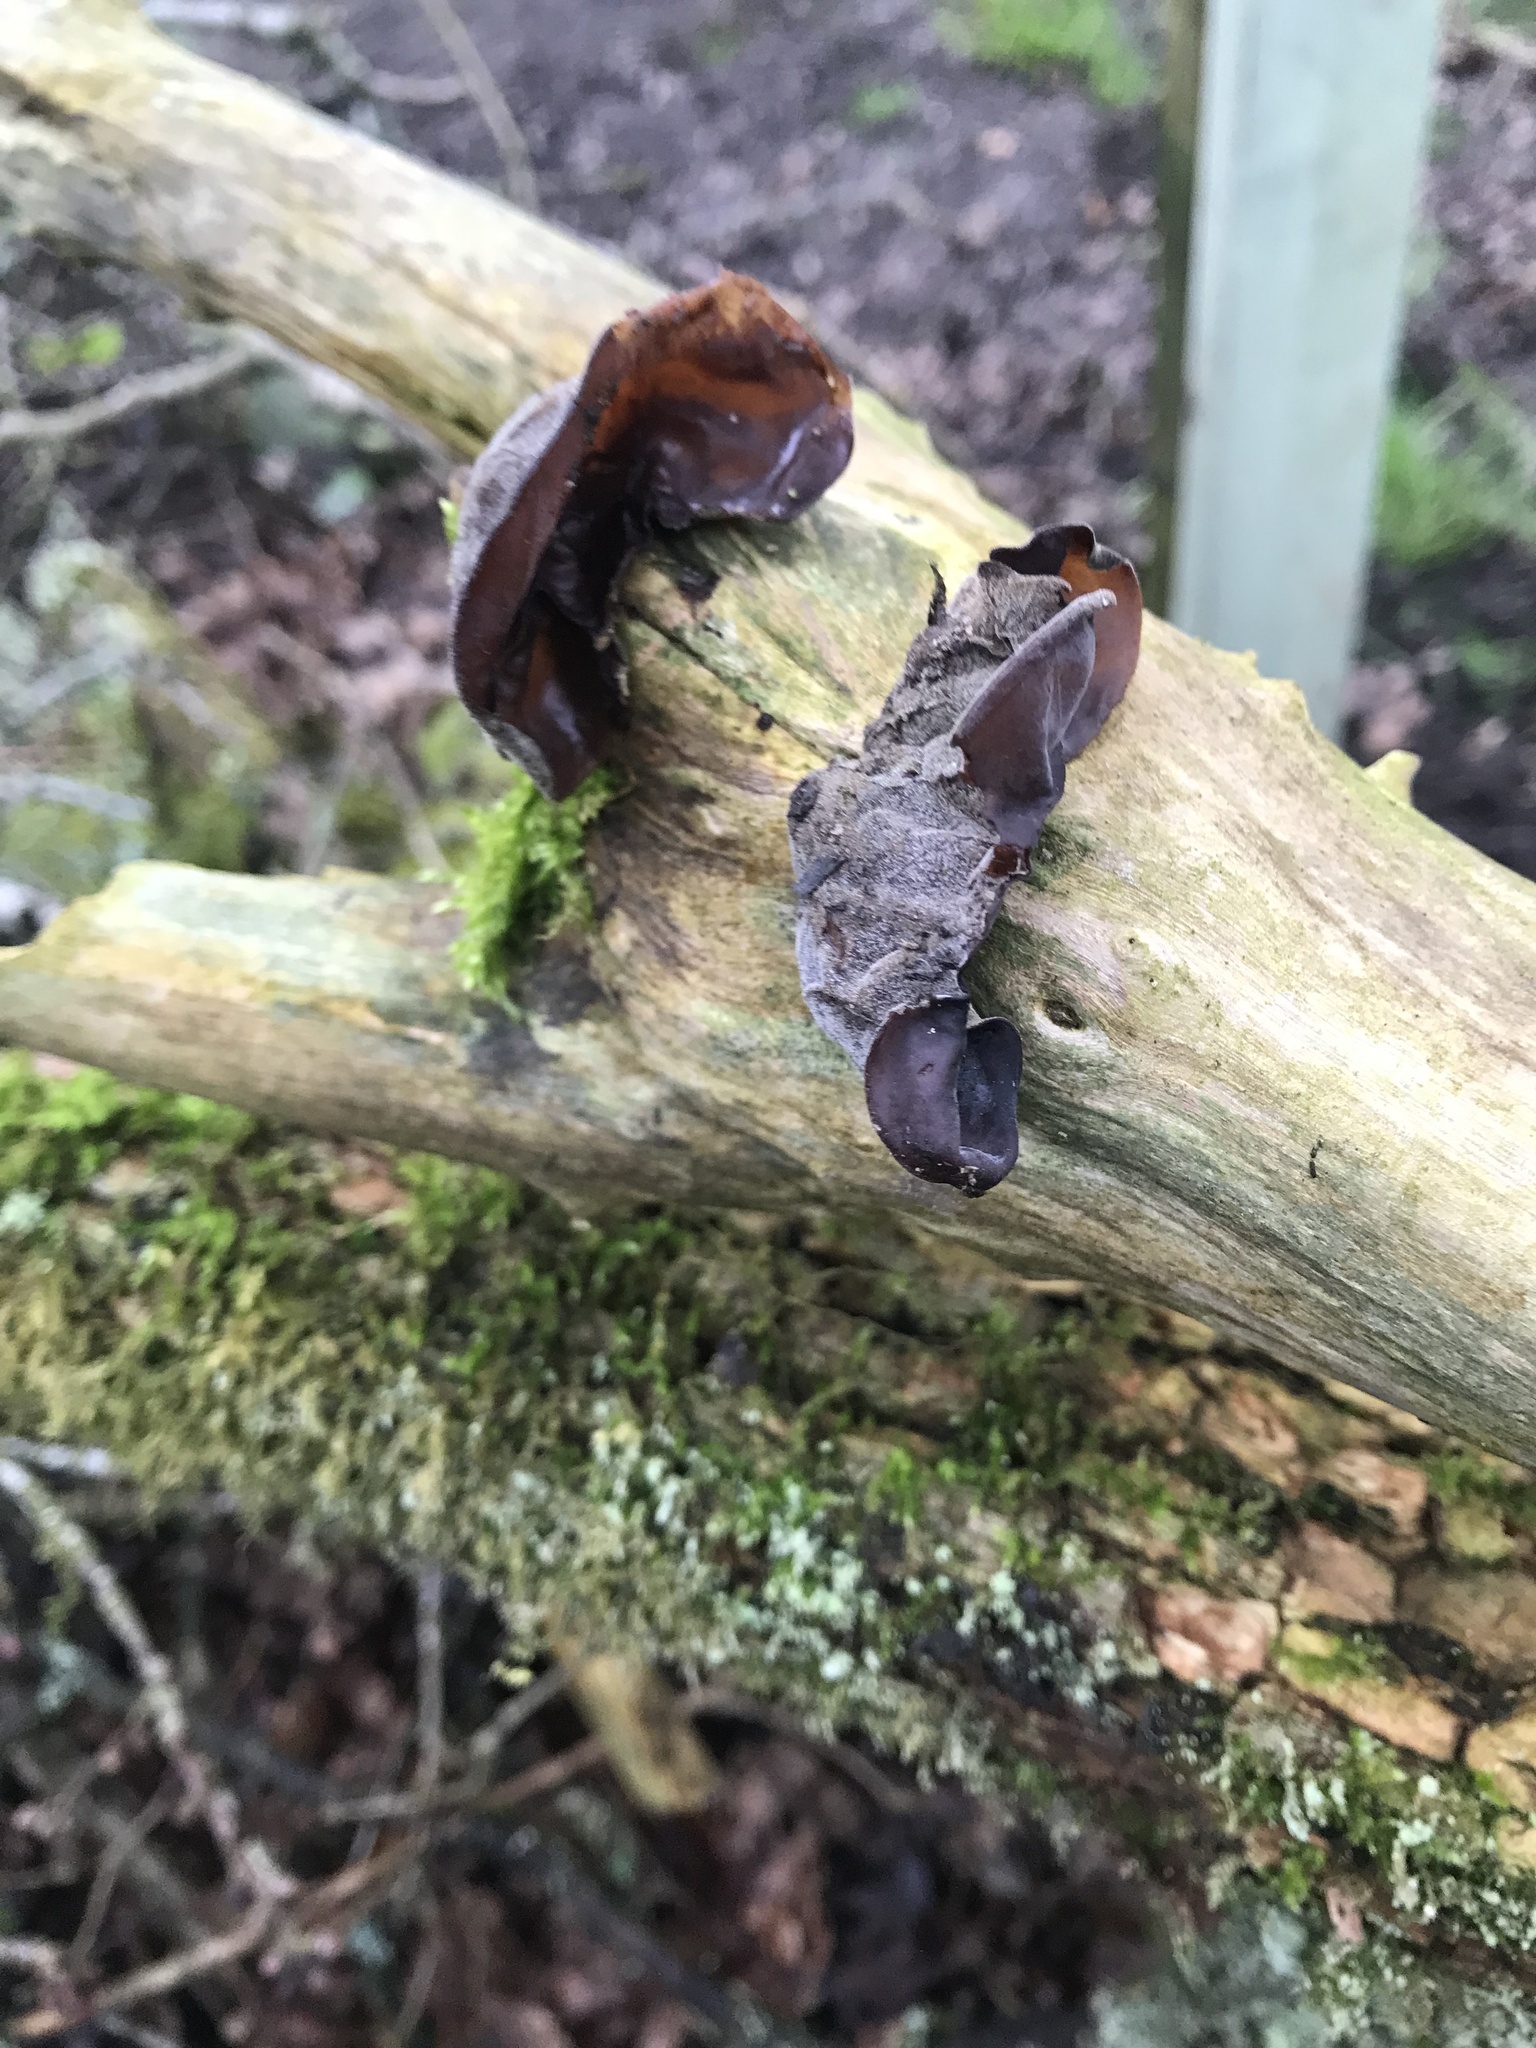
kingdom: Fungi
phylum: Basidiomycota
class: Agaricomycetes
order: Auriculariales
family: Auriculariaceae
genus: Auricularia
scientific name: Auricularia auricula-judae
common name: Jelly ear
